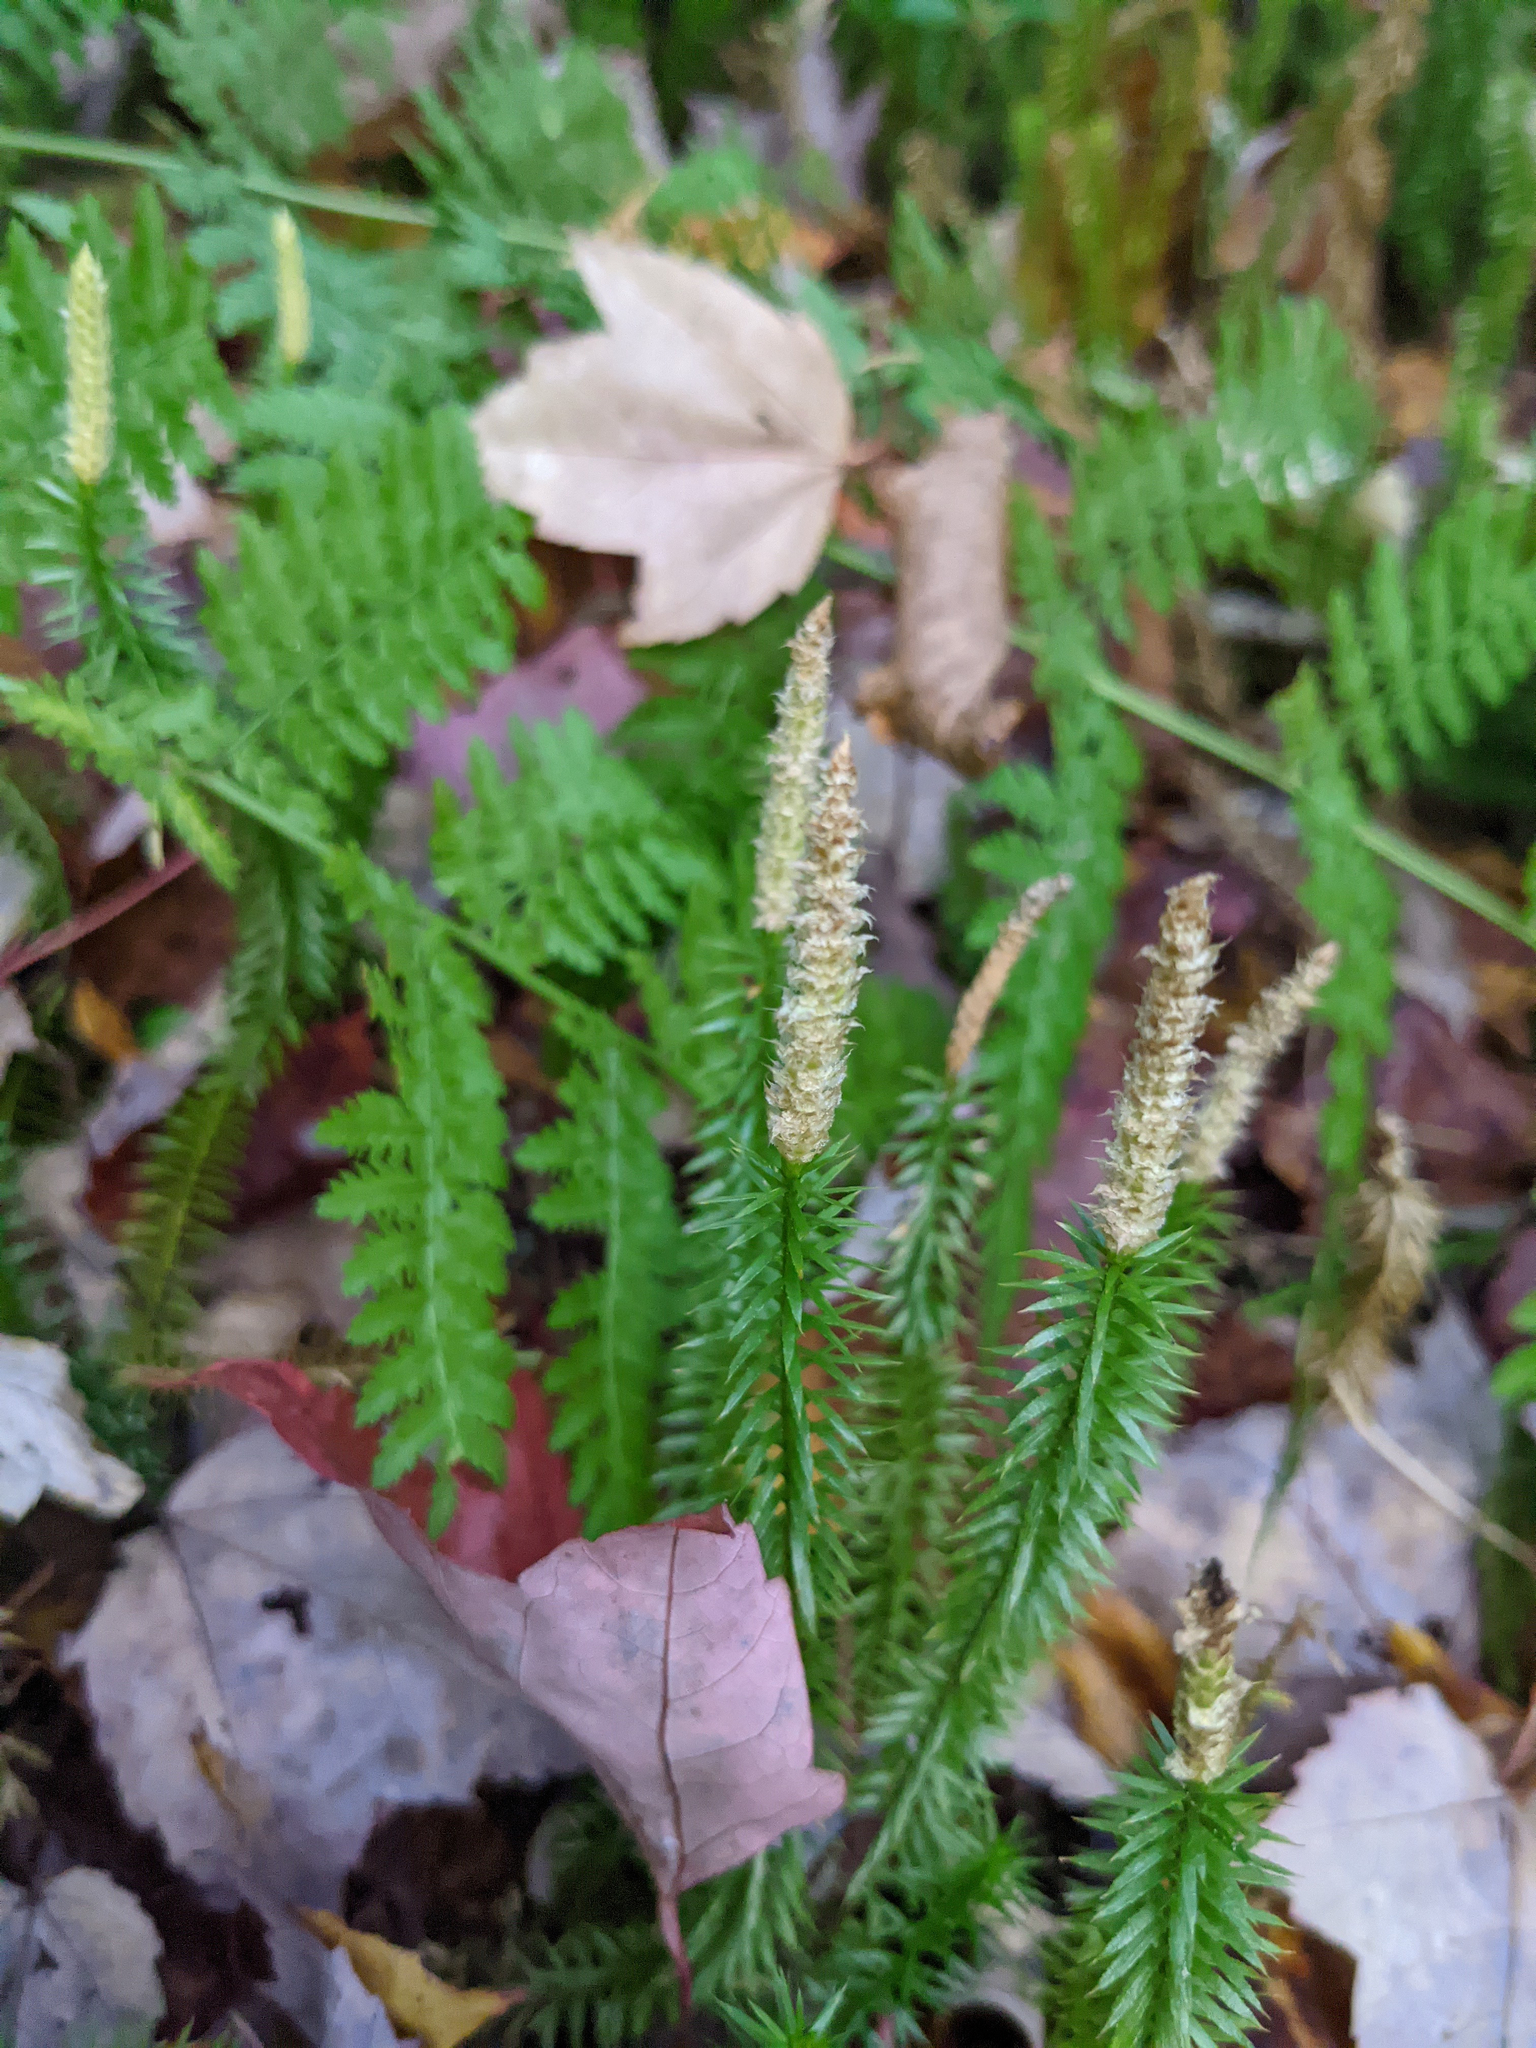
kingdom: Plantae
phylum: Tracheophyta
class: Lycopodiopsida
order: Lycopodiales
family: Lycopodiaceae
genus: Spinulum
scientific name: Spinulum annotinum
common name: Interrupted club-moss
